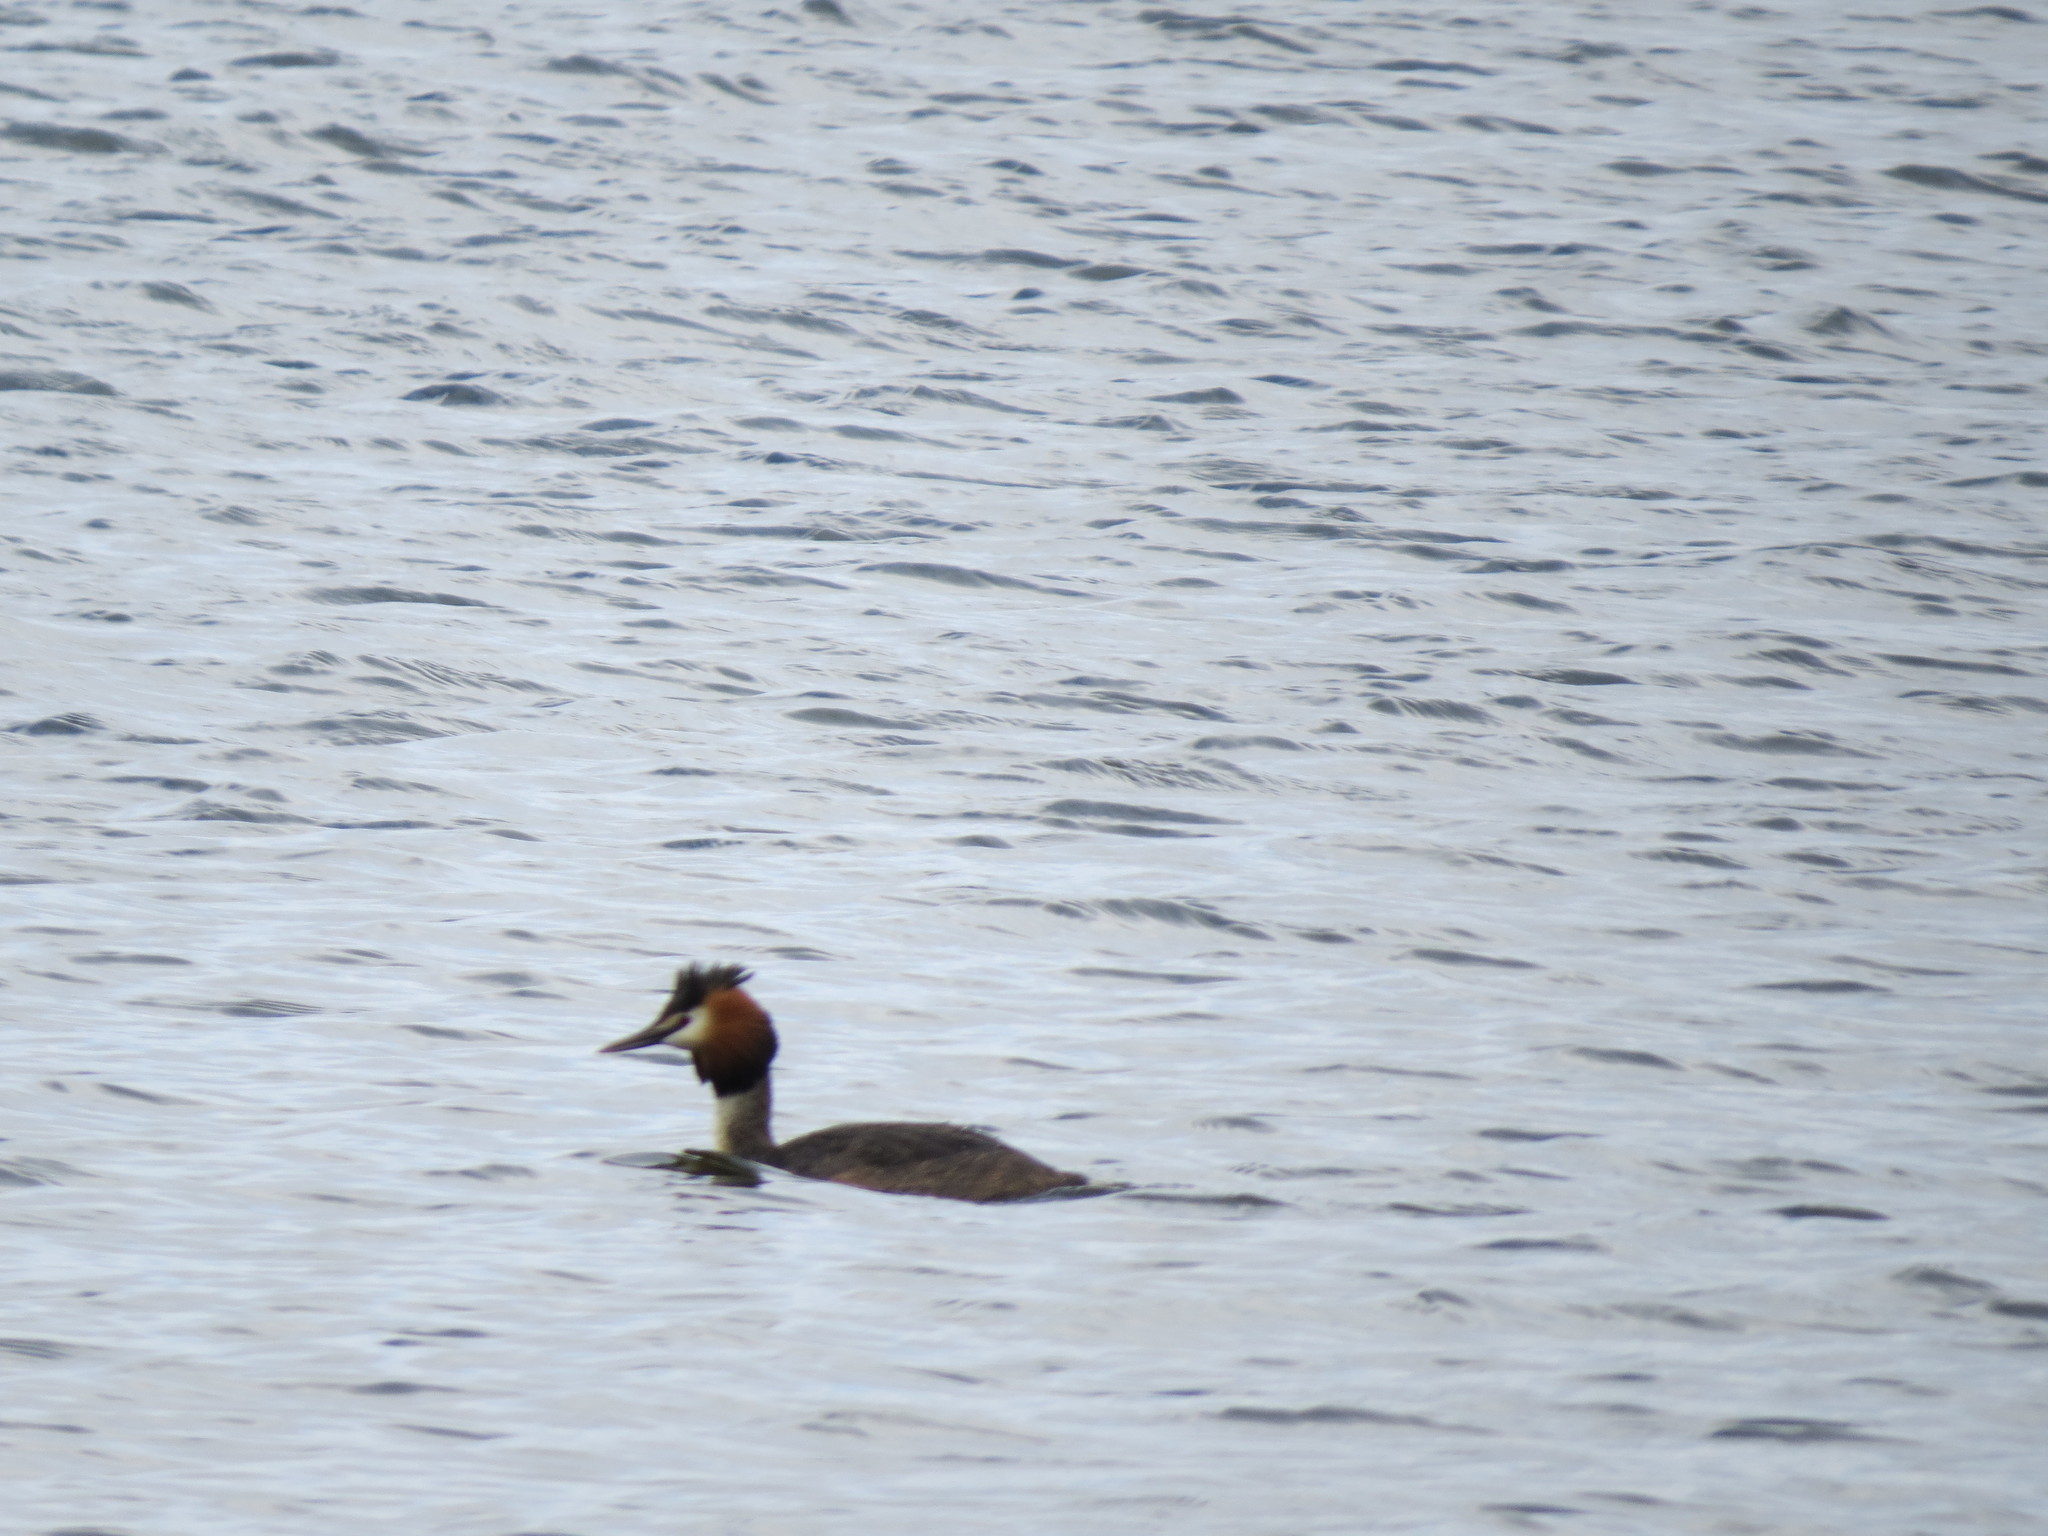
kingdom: Animalia
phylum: Chordata
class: Aves
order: Podicipediformes
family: Podicipedidae
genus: Podiceps
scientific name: Podiceps cristatus
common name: Great crested grebe
